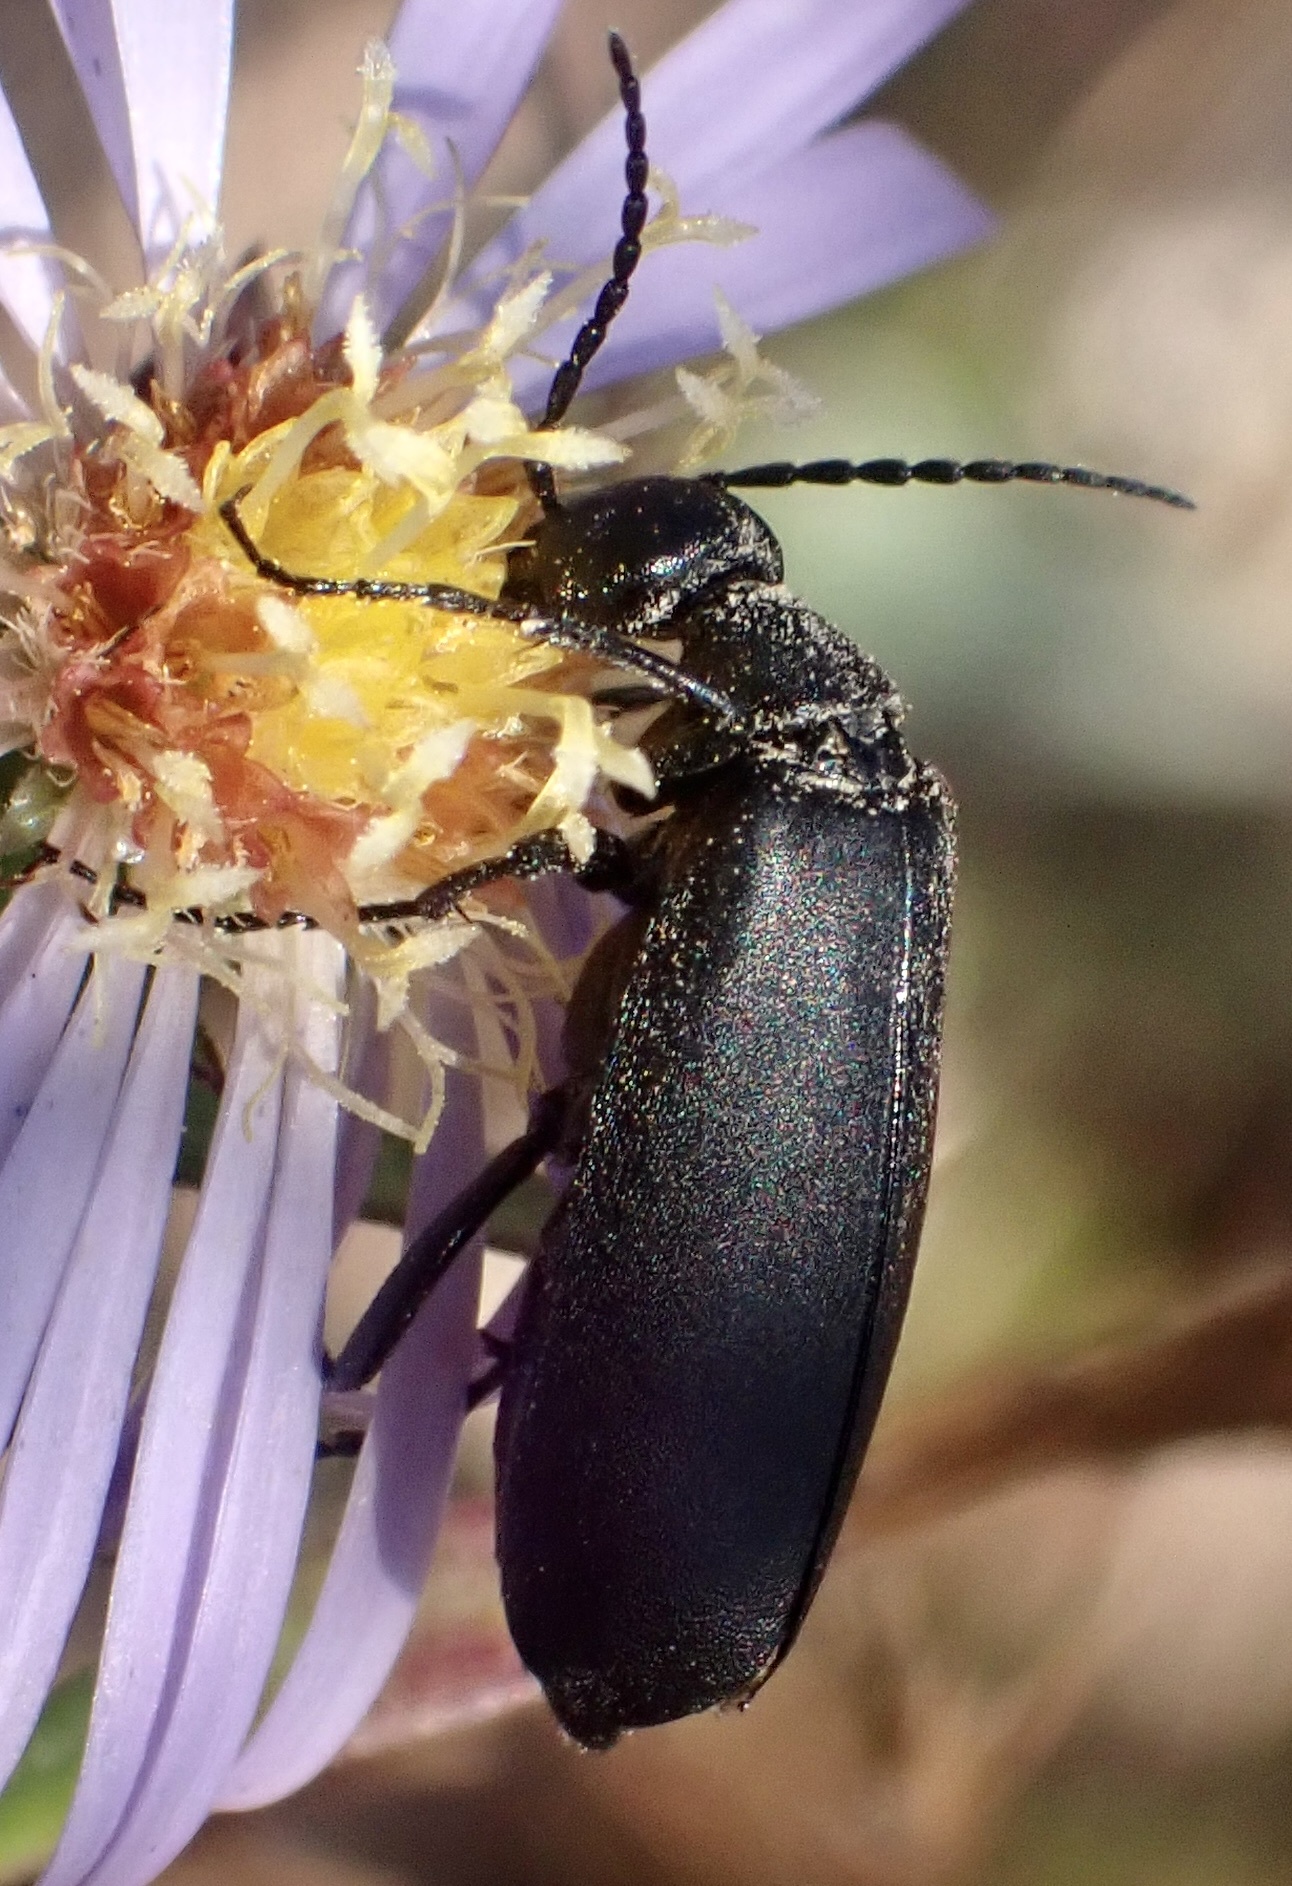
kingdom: Animalia
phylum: Arthropoda
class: Insecta
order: Coleoptera
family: Meloidae
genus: Epicauta
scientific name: Epicauta pensylvanica
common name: Black blister beetle
